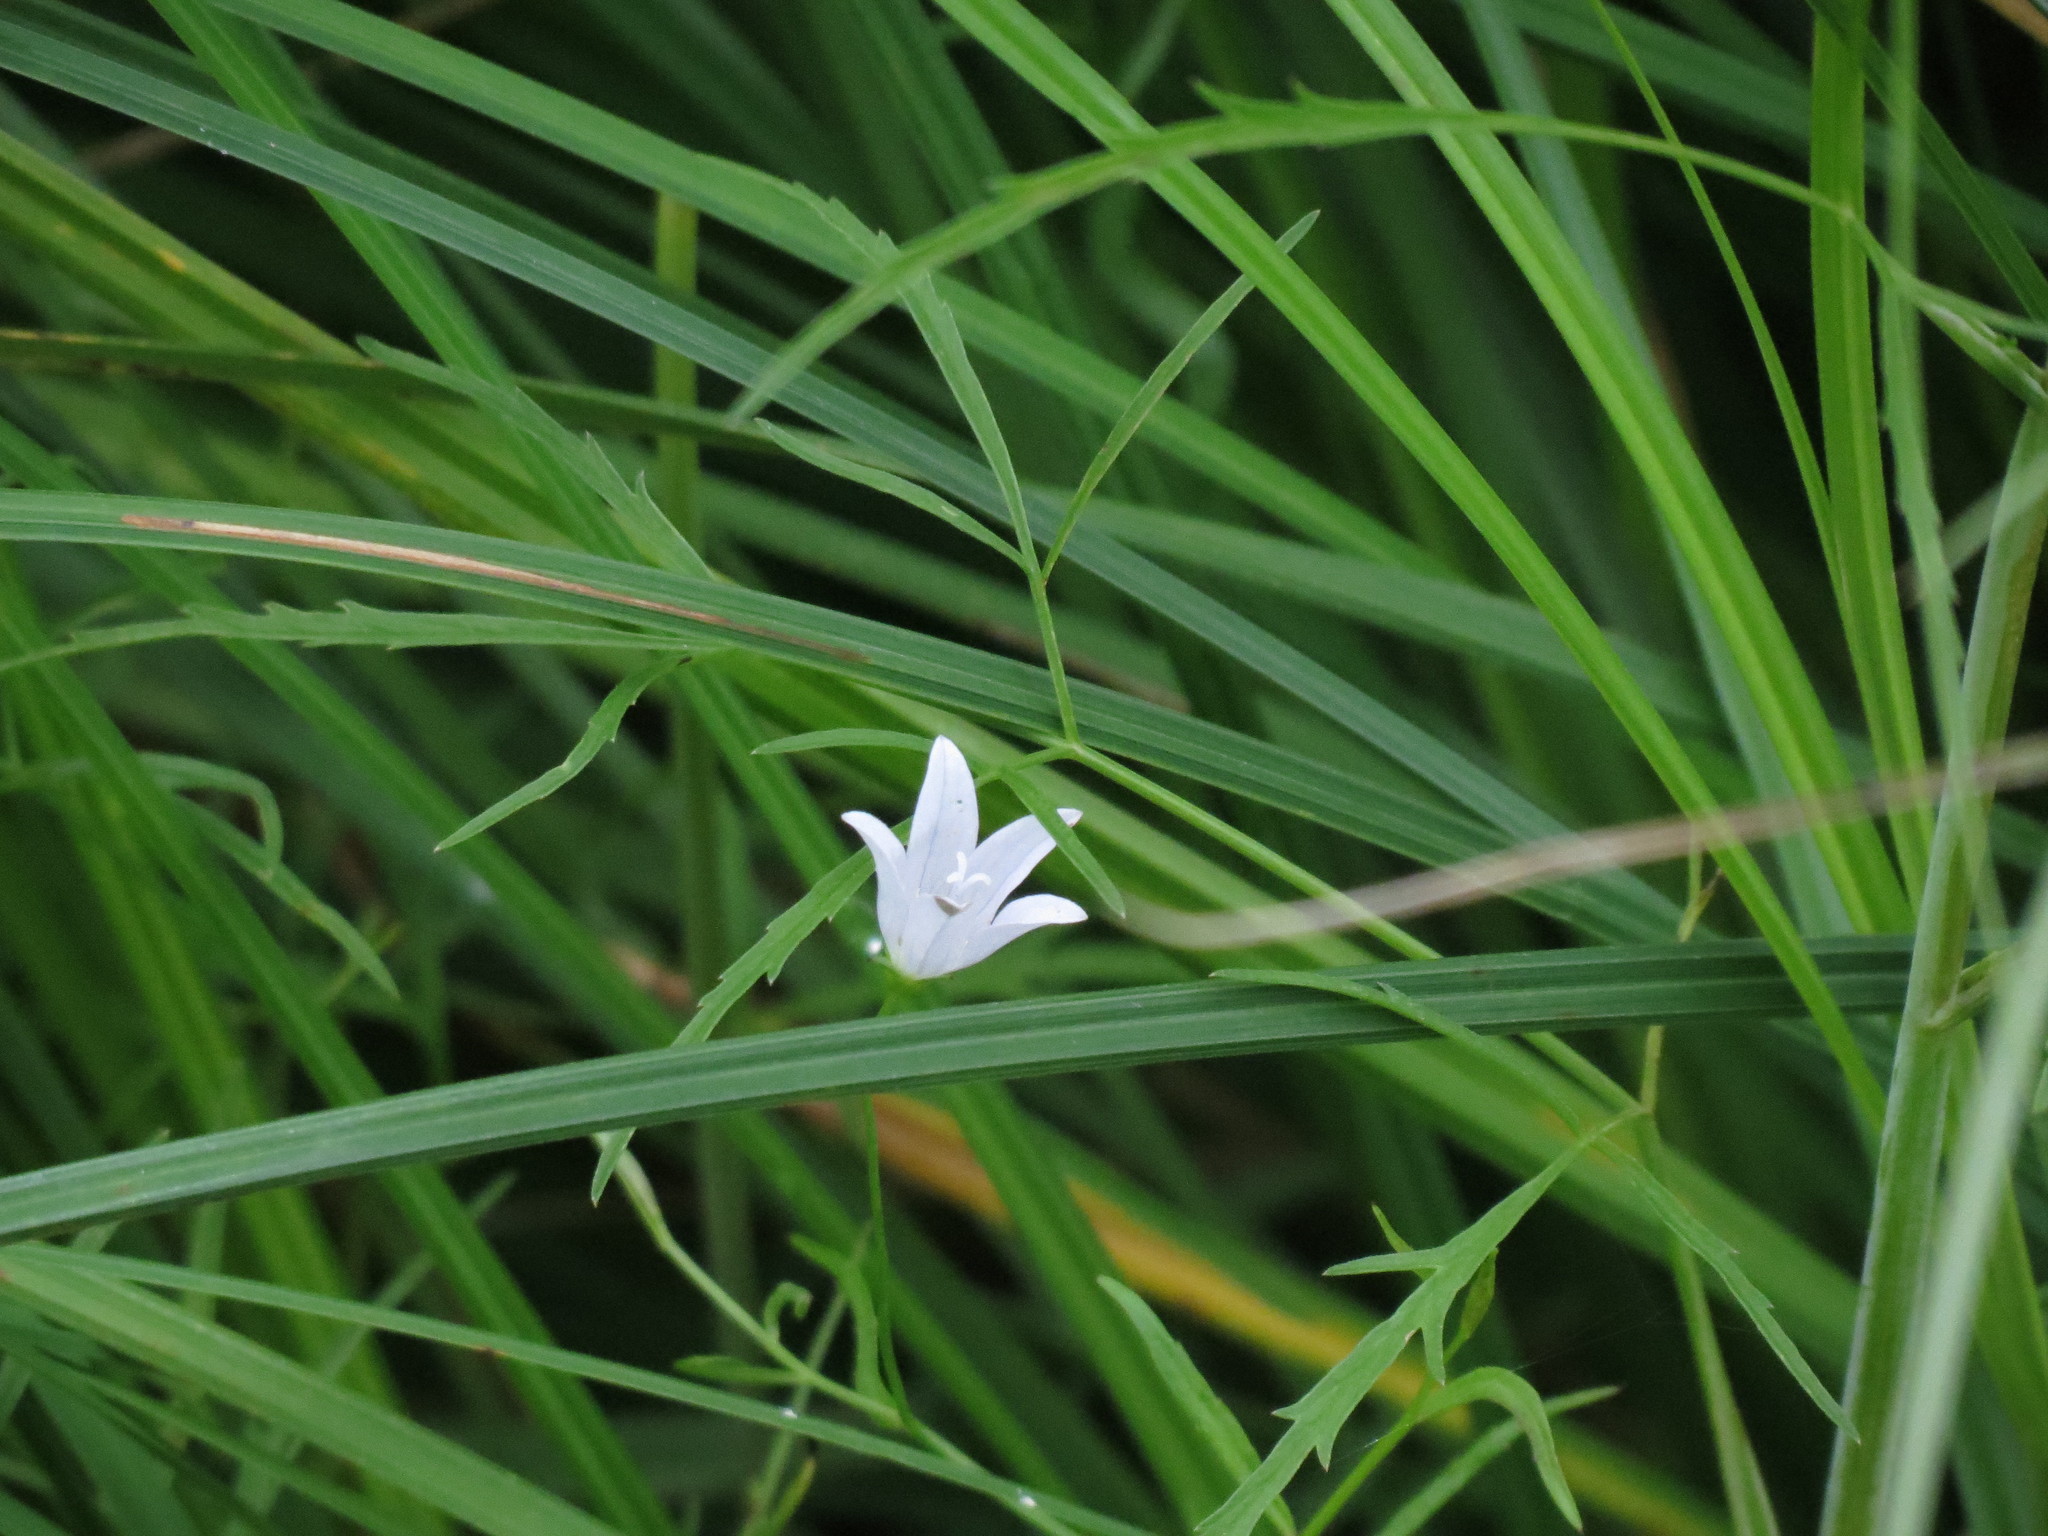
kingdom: Plantae
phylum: Tracheophyta
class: Magnoliopsida
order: Asterales
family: Campanulaceae
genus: Palustricodon
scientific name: Palustricodon aparinoides
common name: Bedstraw bellflower
